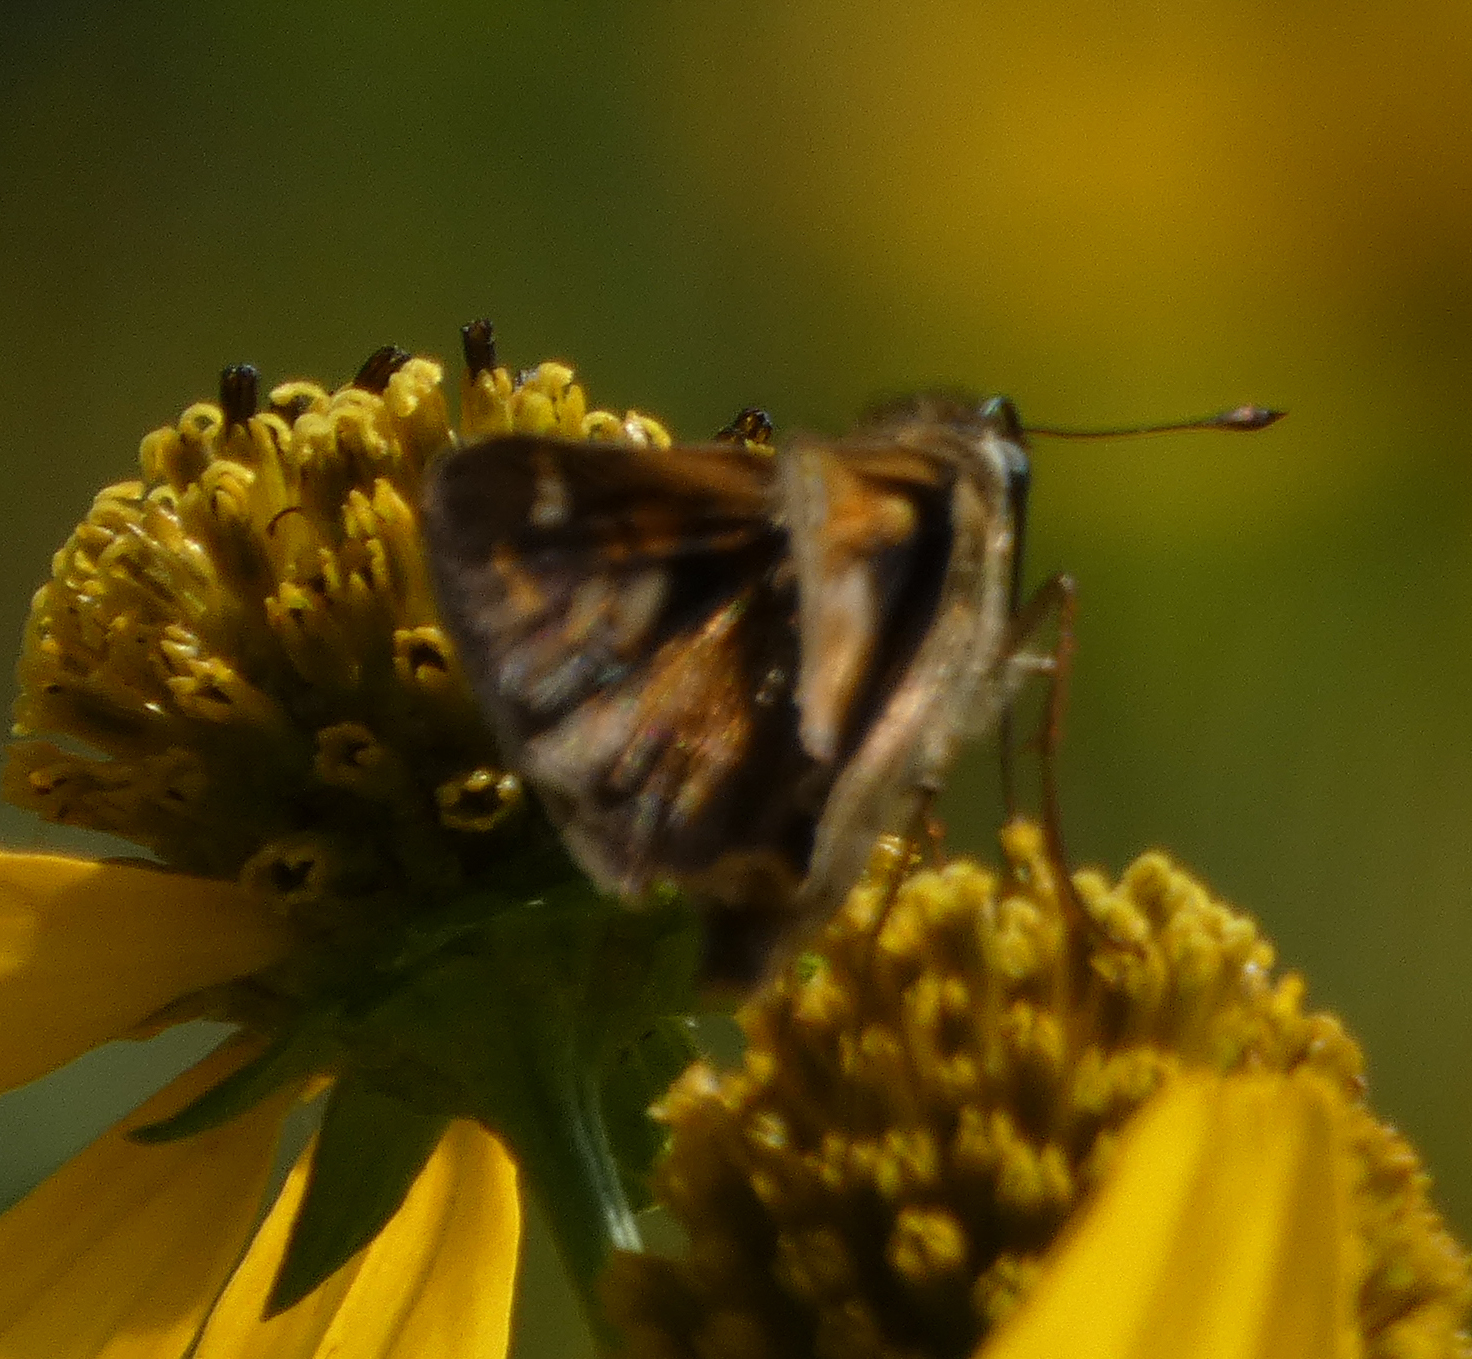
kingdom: Animalia
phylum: Arthropoda
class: Insecta
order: Lepidoptera
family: Hesperiidae
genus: Atalopedes
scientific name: Atalopedes
